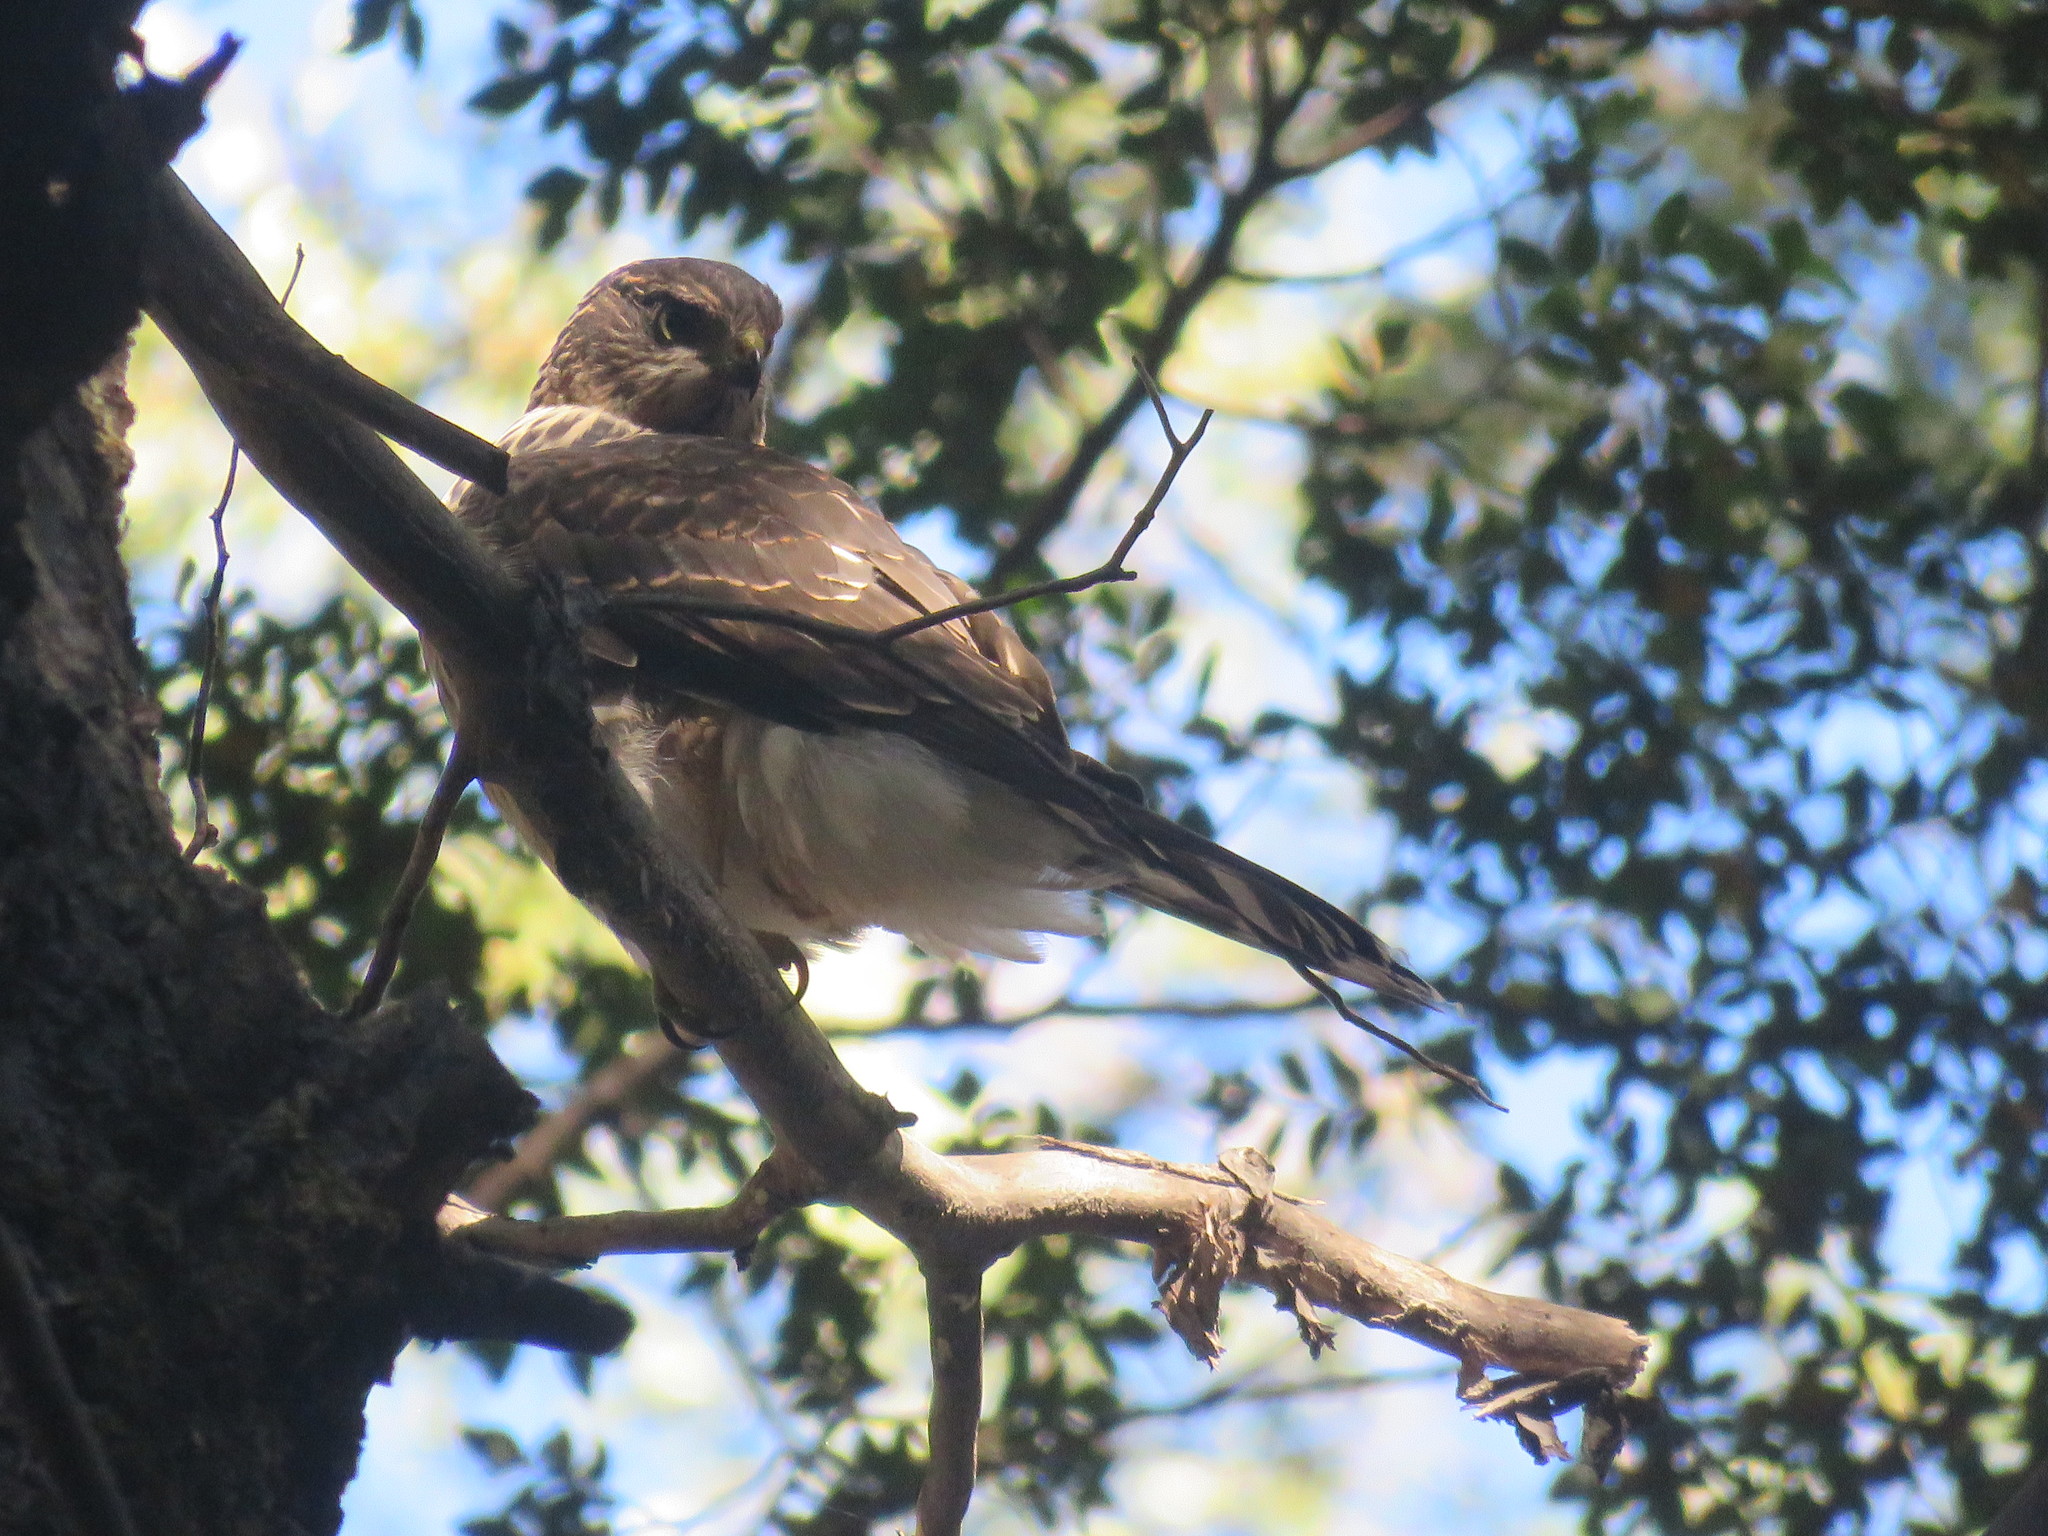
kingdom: Animalia
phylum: Chordata
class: Aves
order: Accipitriformes
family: Accipitridae
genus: Accipiter
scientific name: Accipiter chilensis
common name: Chilean hawk
